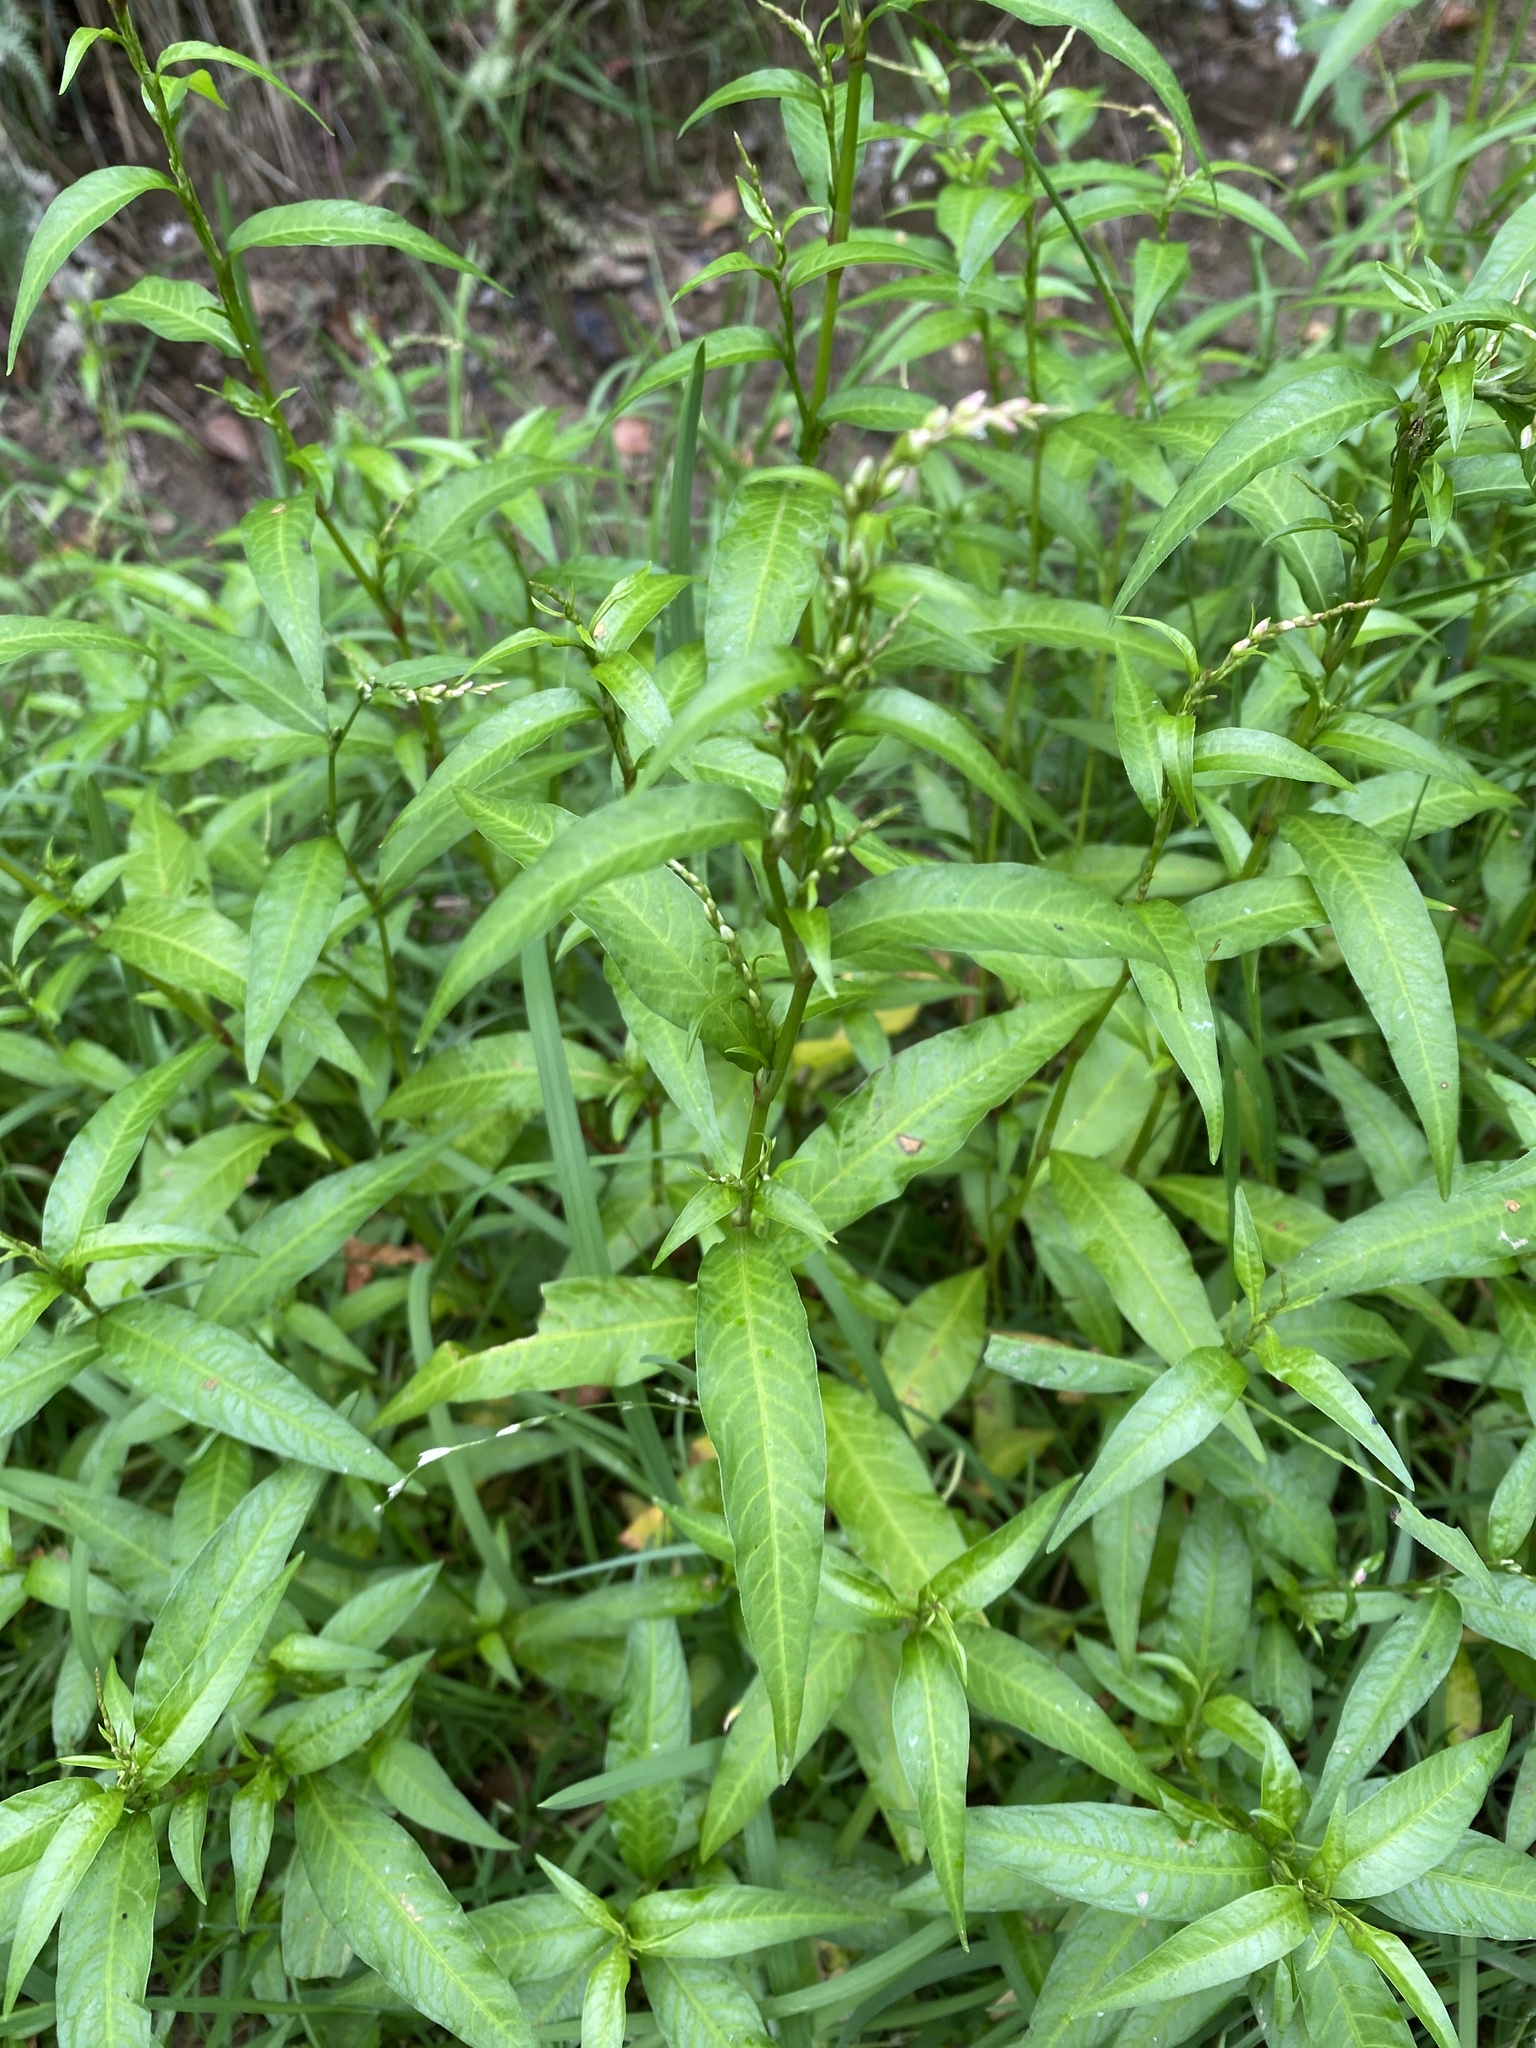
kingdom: Plantae
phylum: Tracheophyta
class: Magnoliopsida
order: Caryophyllales
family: Polygonaceae
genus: Persicaria
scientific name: Persicaria hydropiper
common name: Water-pepper
